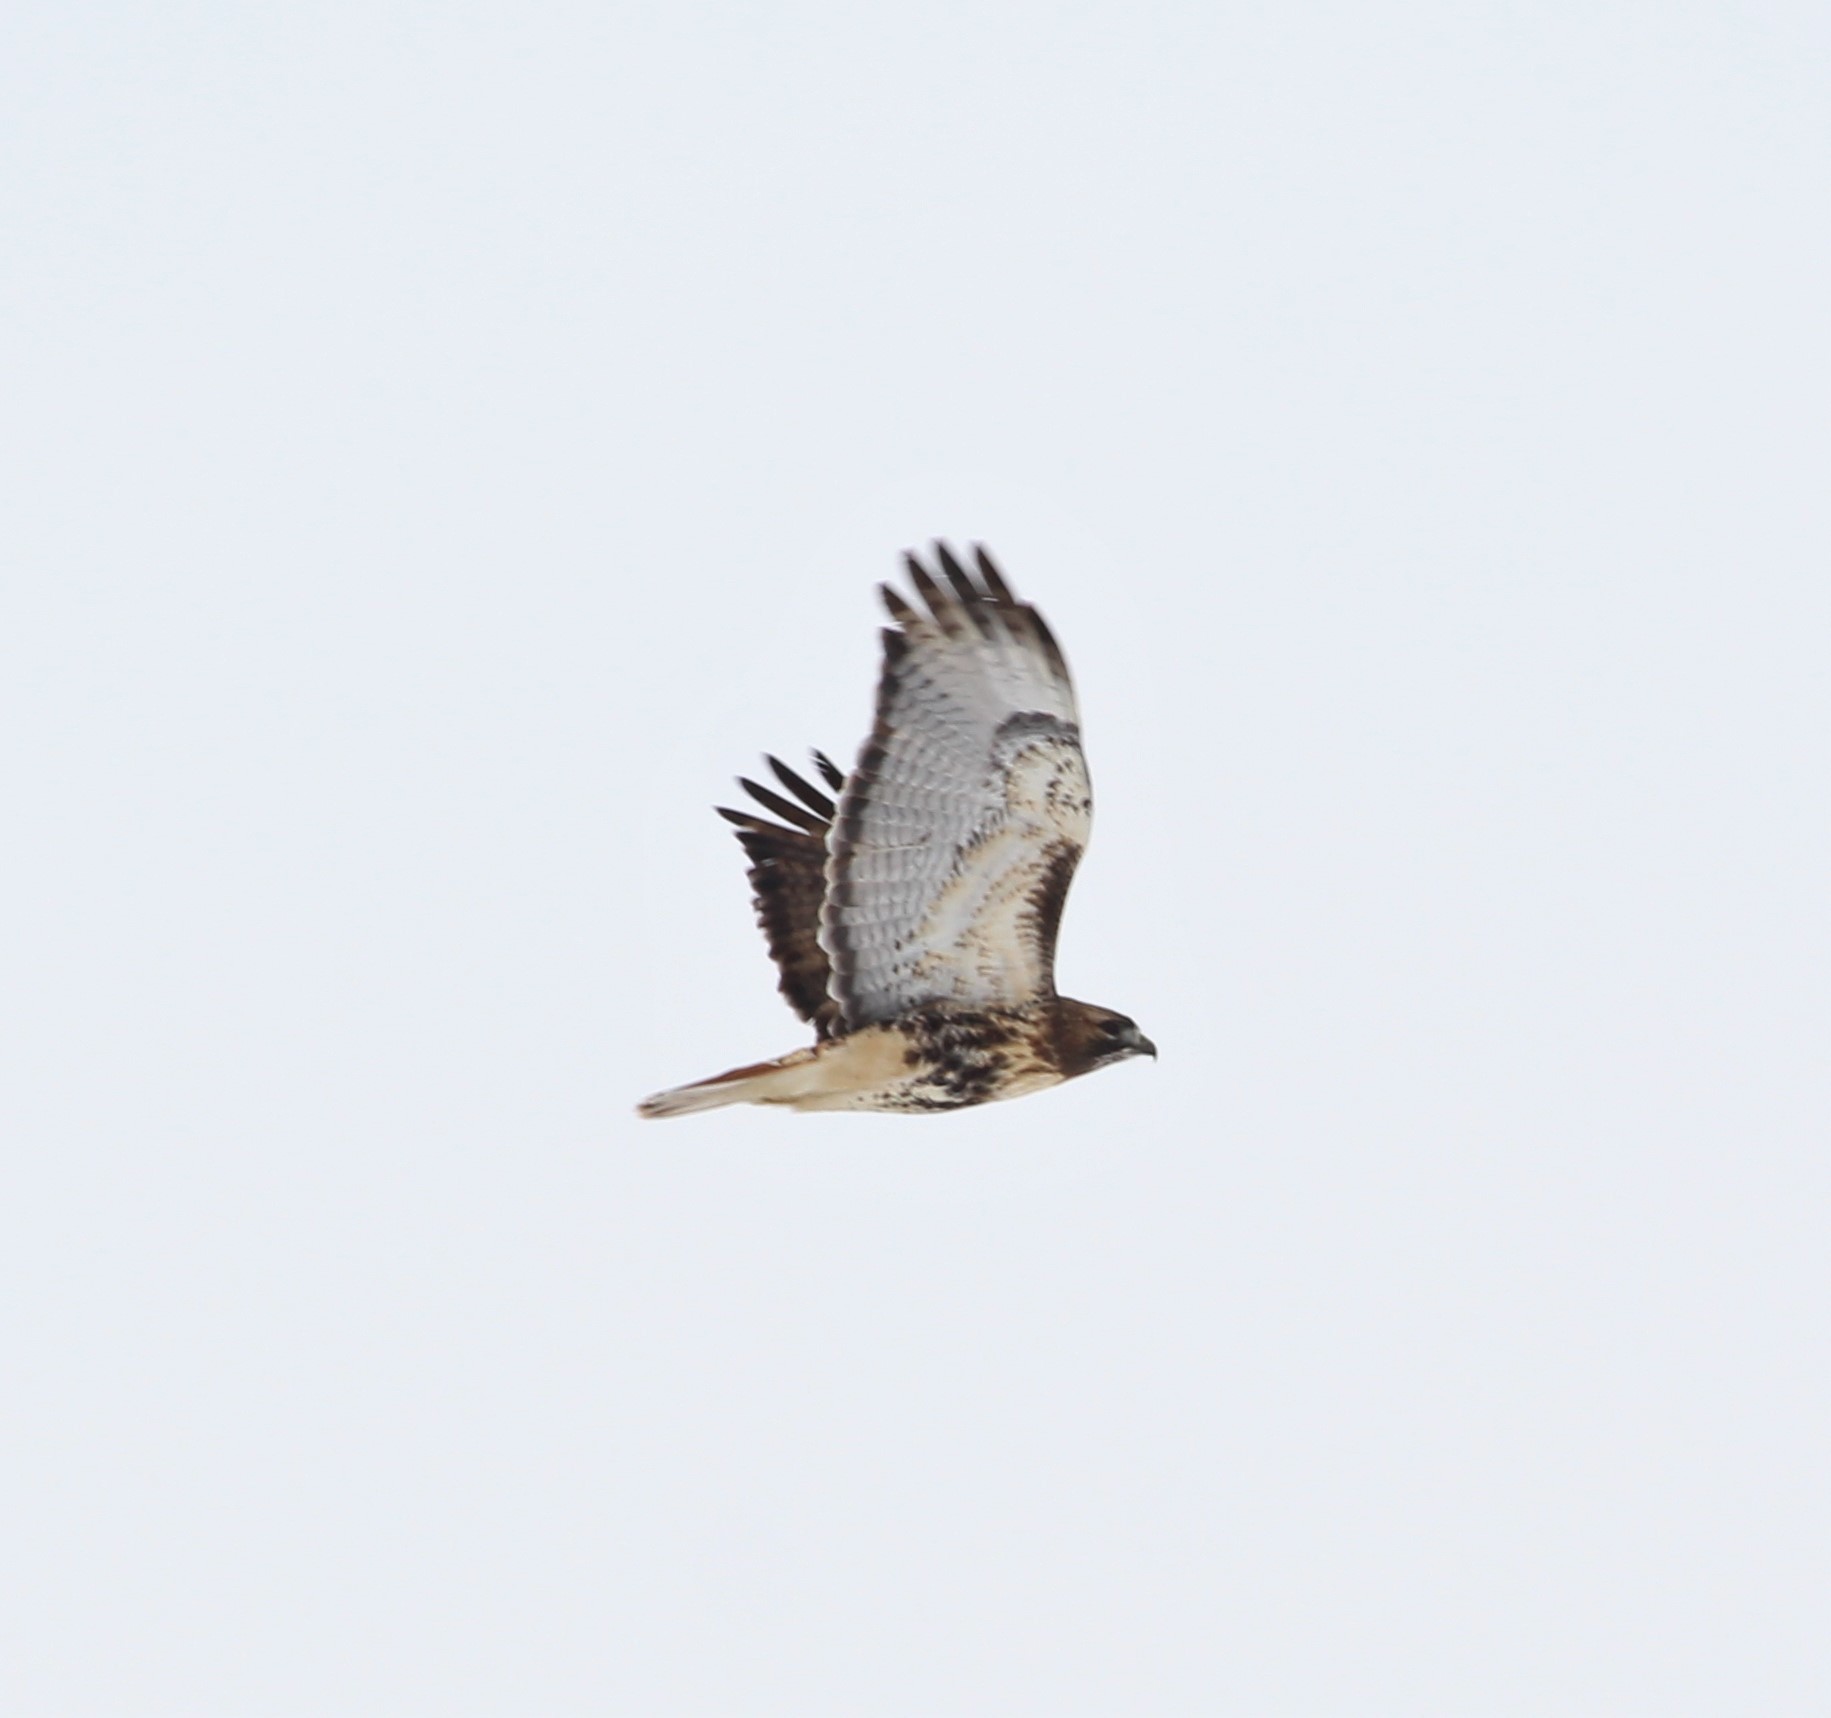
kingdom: Animalia
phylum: Chordata
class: Aves
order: Accipitriformes
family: Accipitridae
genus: Buteo
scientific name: Buteo jamaicensis
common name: Red-tailed hawk
